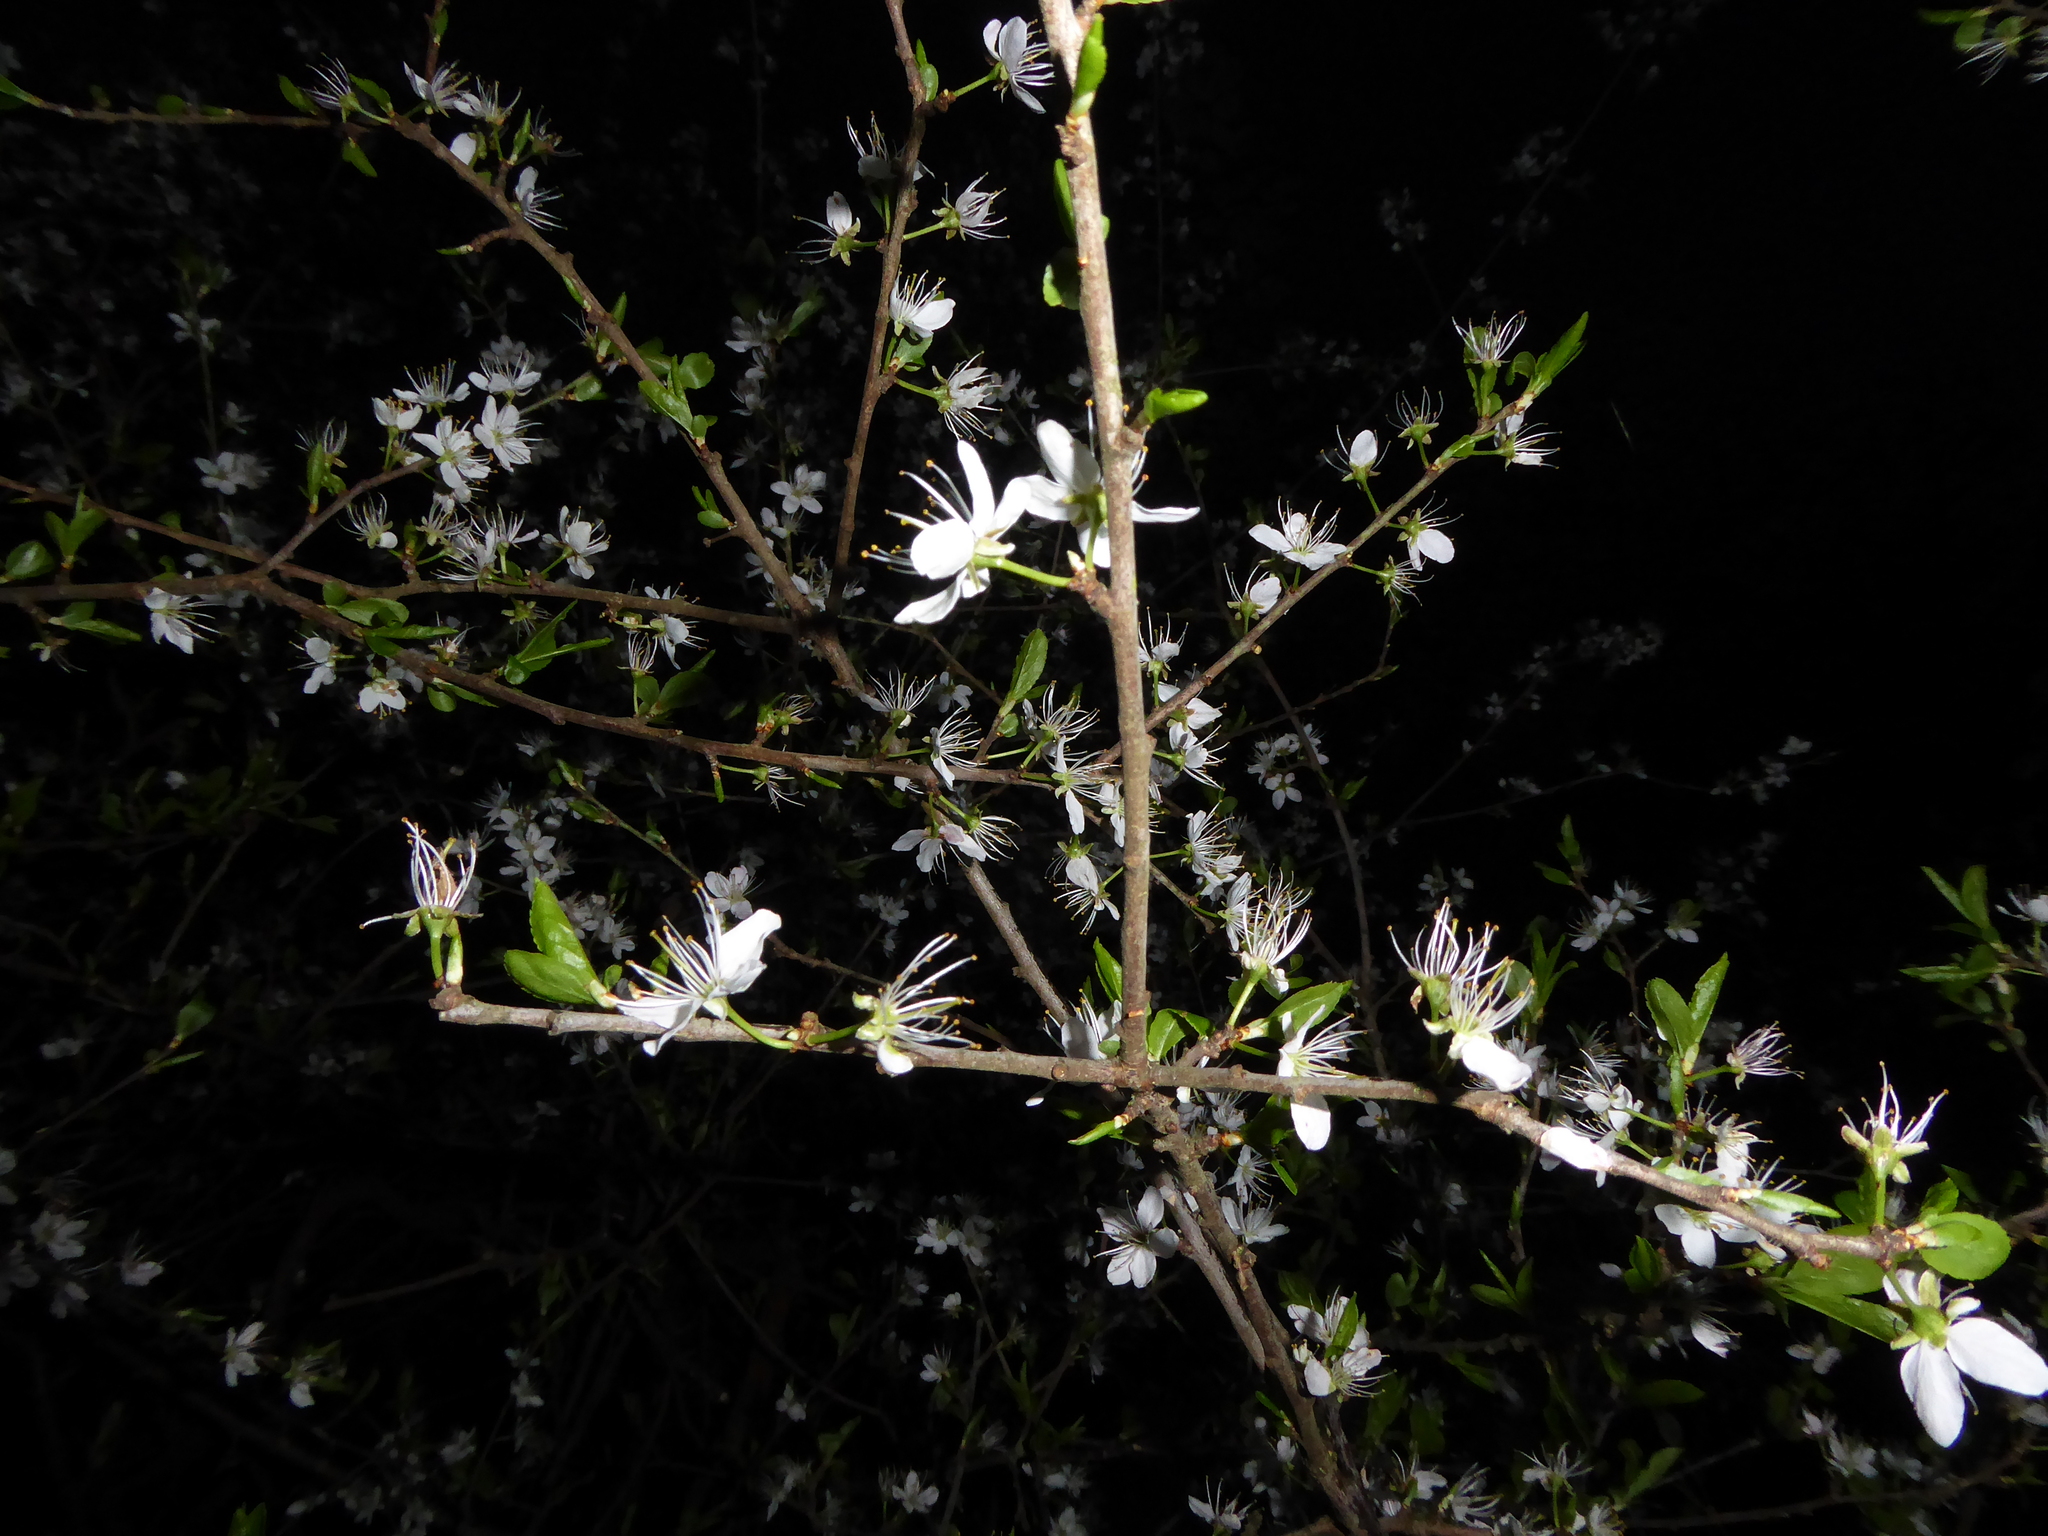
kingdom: Plantae
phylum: Tracheophyta
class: Magnoliopsida
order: Rosales
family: Rosaceae
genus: Prunus
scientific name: Prunus spinosa
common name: Blackthorn
